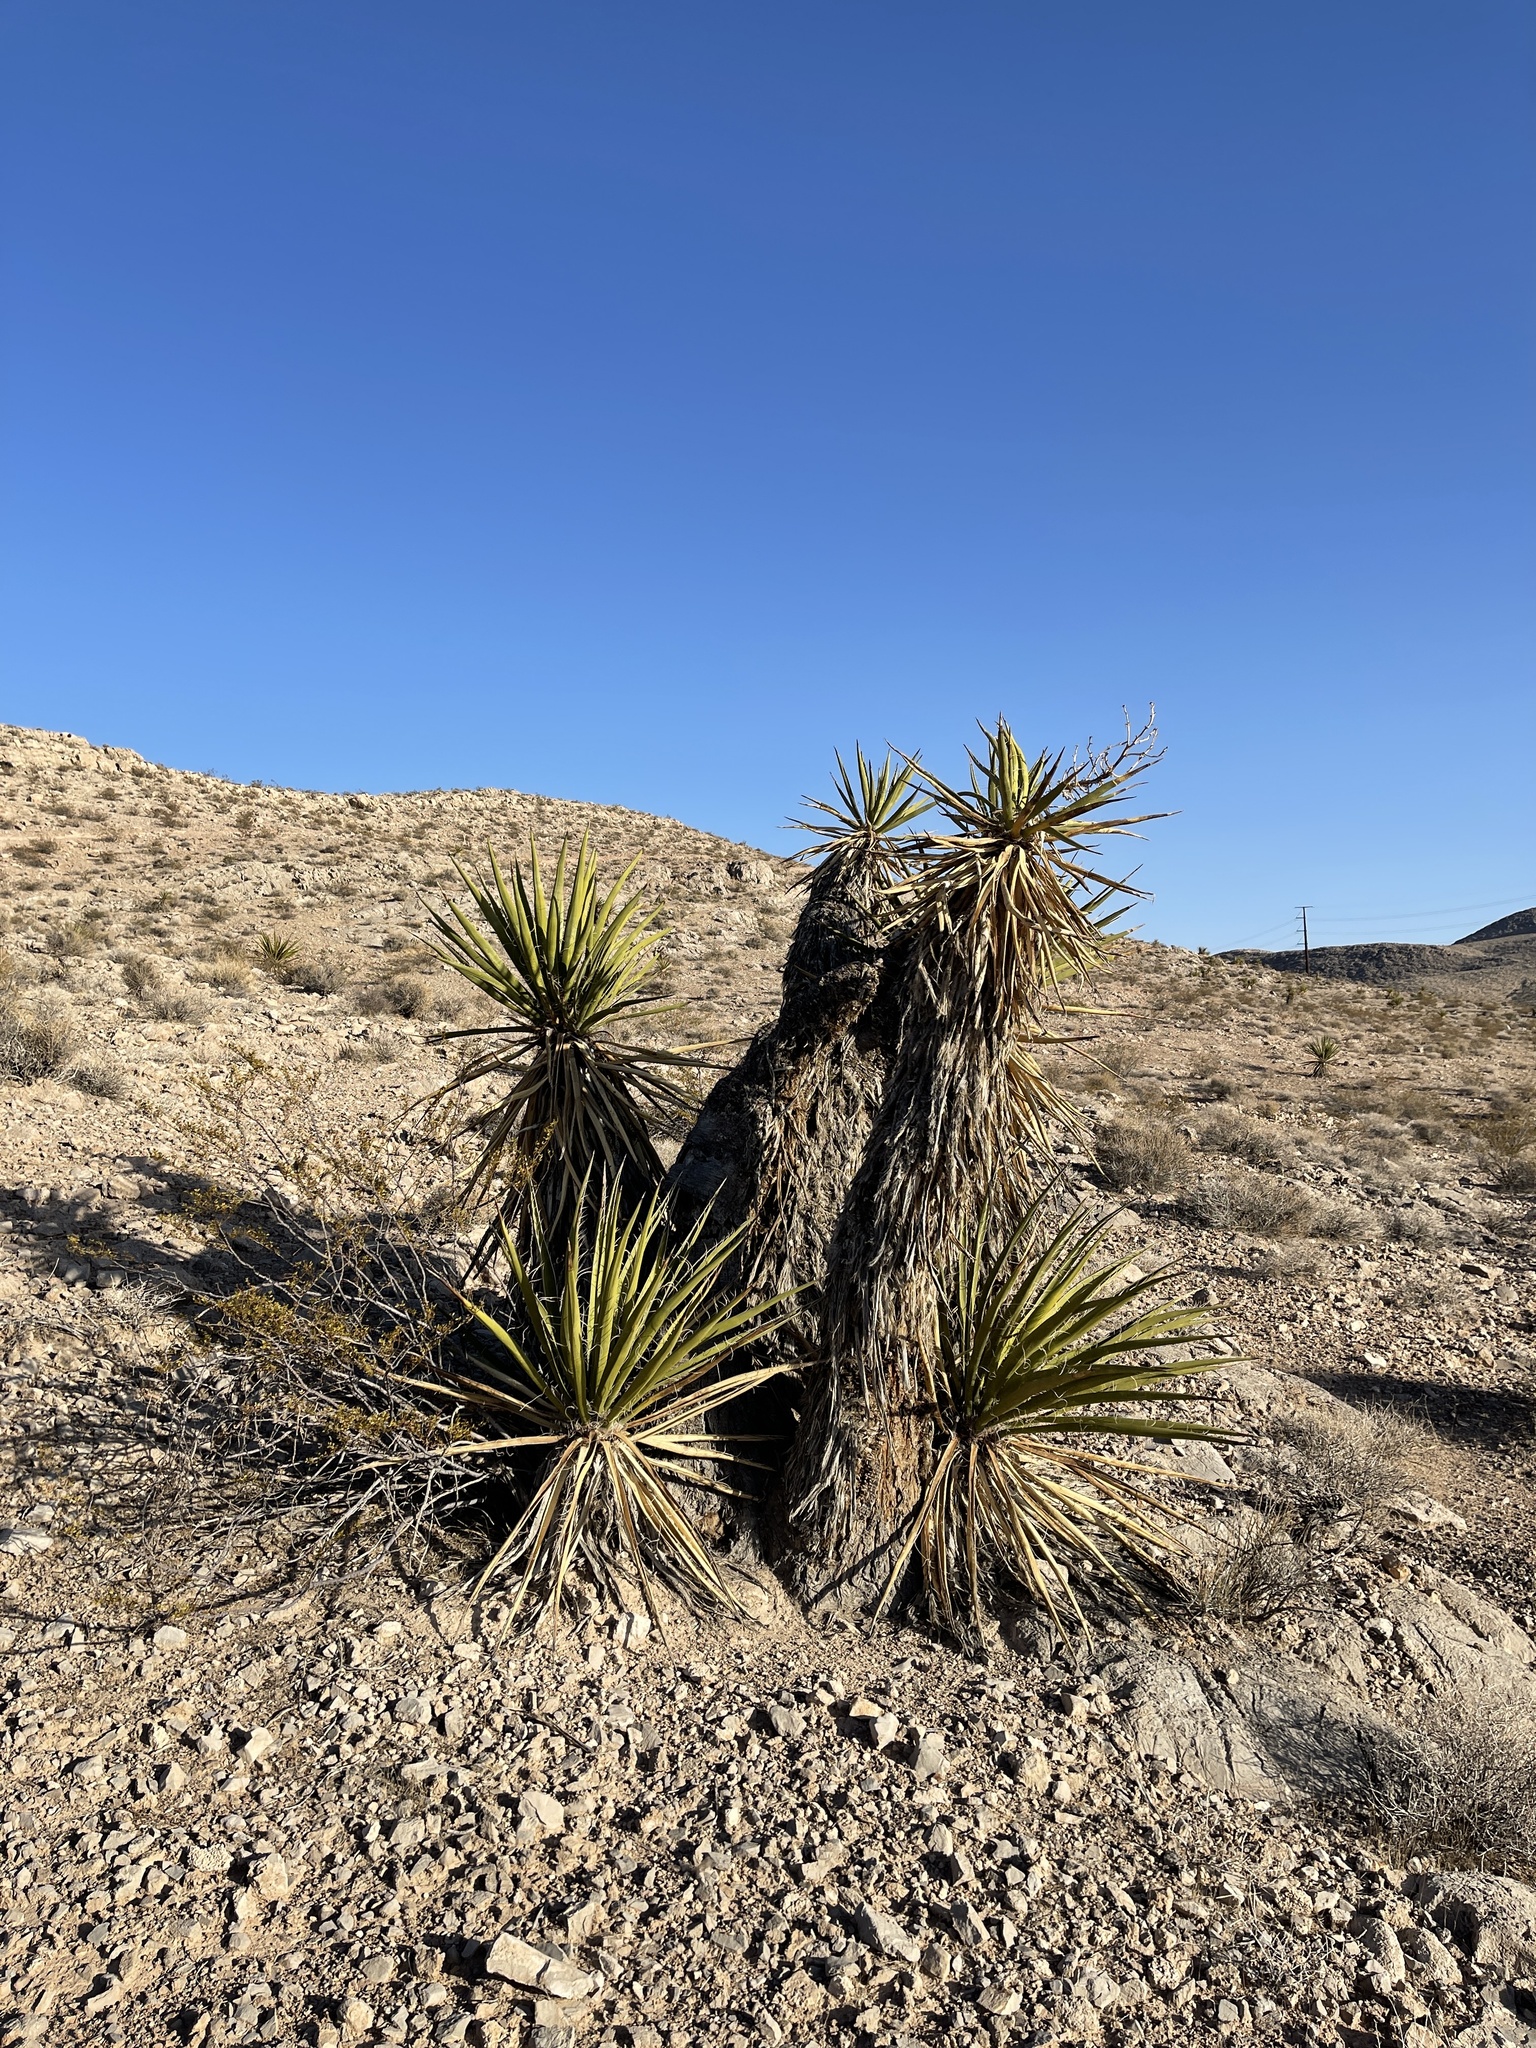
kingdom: Plantae
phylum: Tracheophyta
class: Liliopsida
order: Asparagales
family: Asparagaceae
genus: Yucca
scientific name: Yucca schidigera
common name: Mojave yucca
